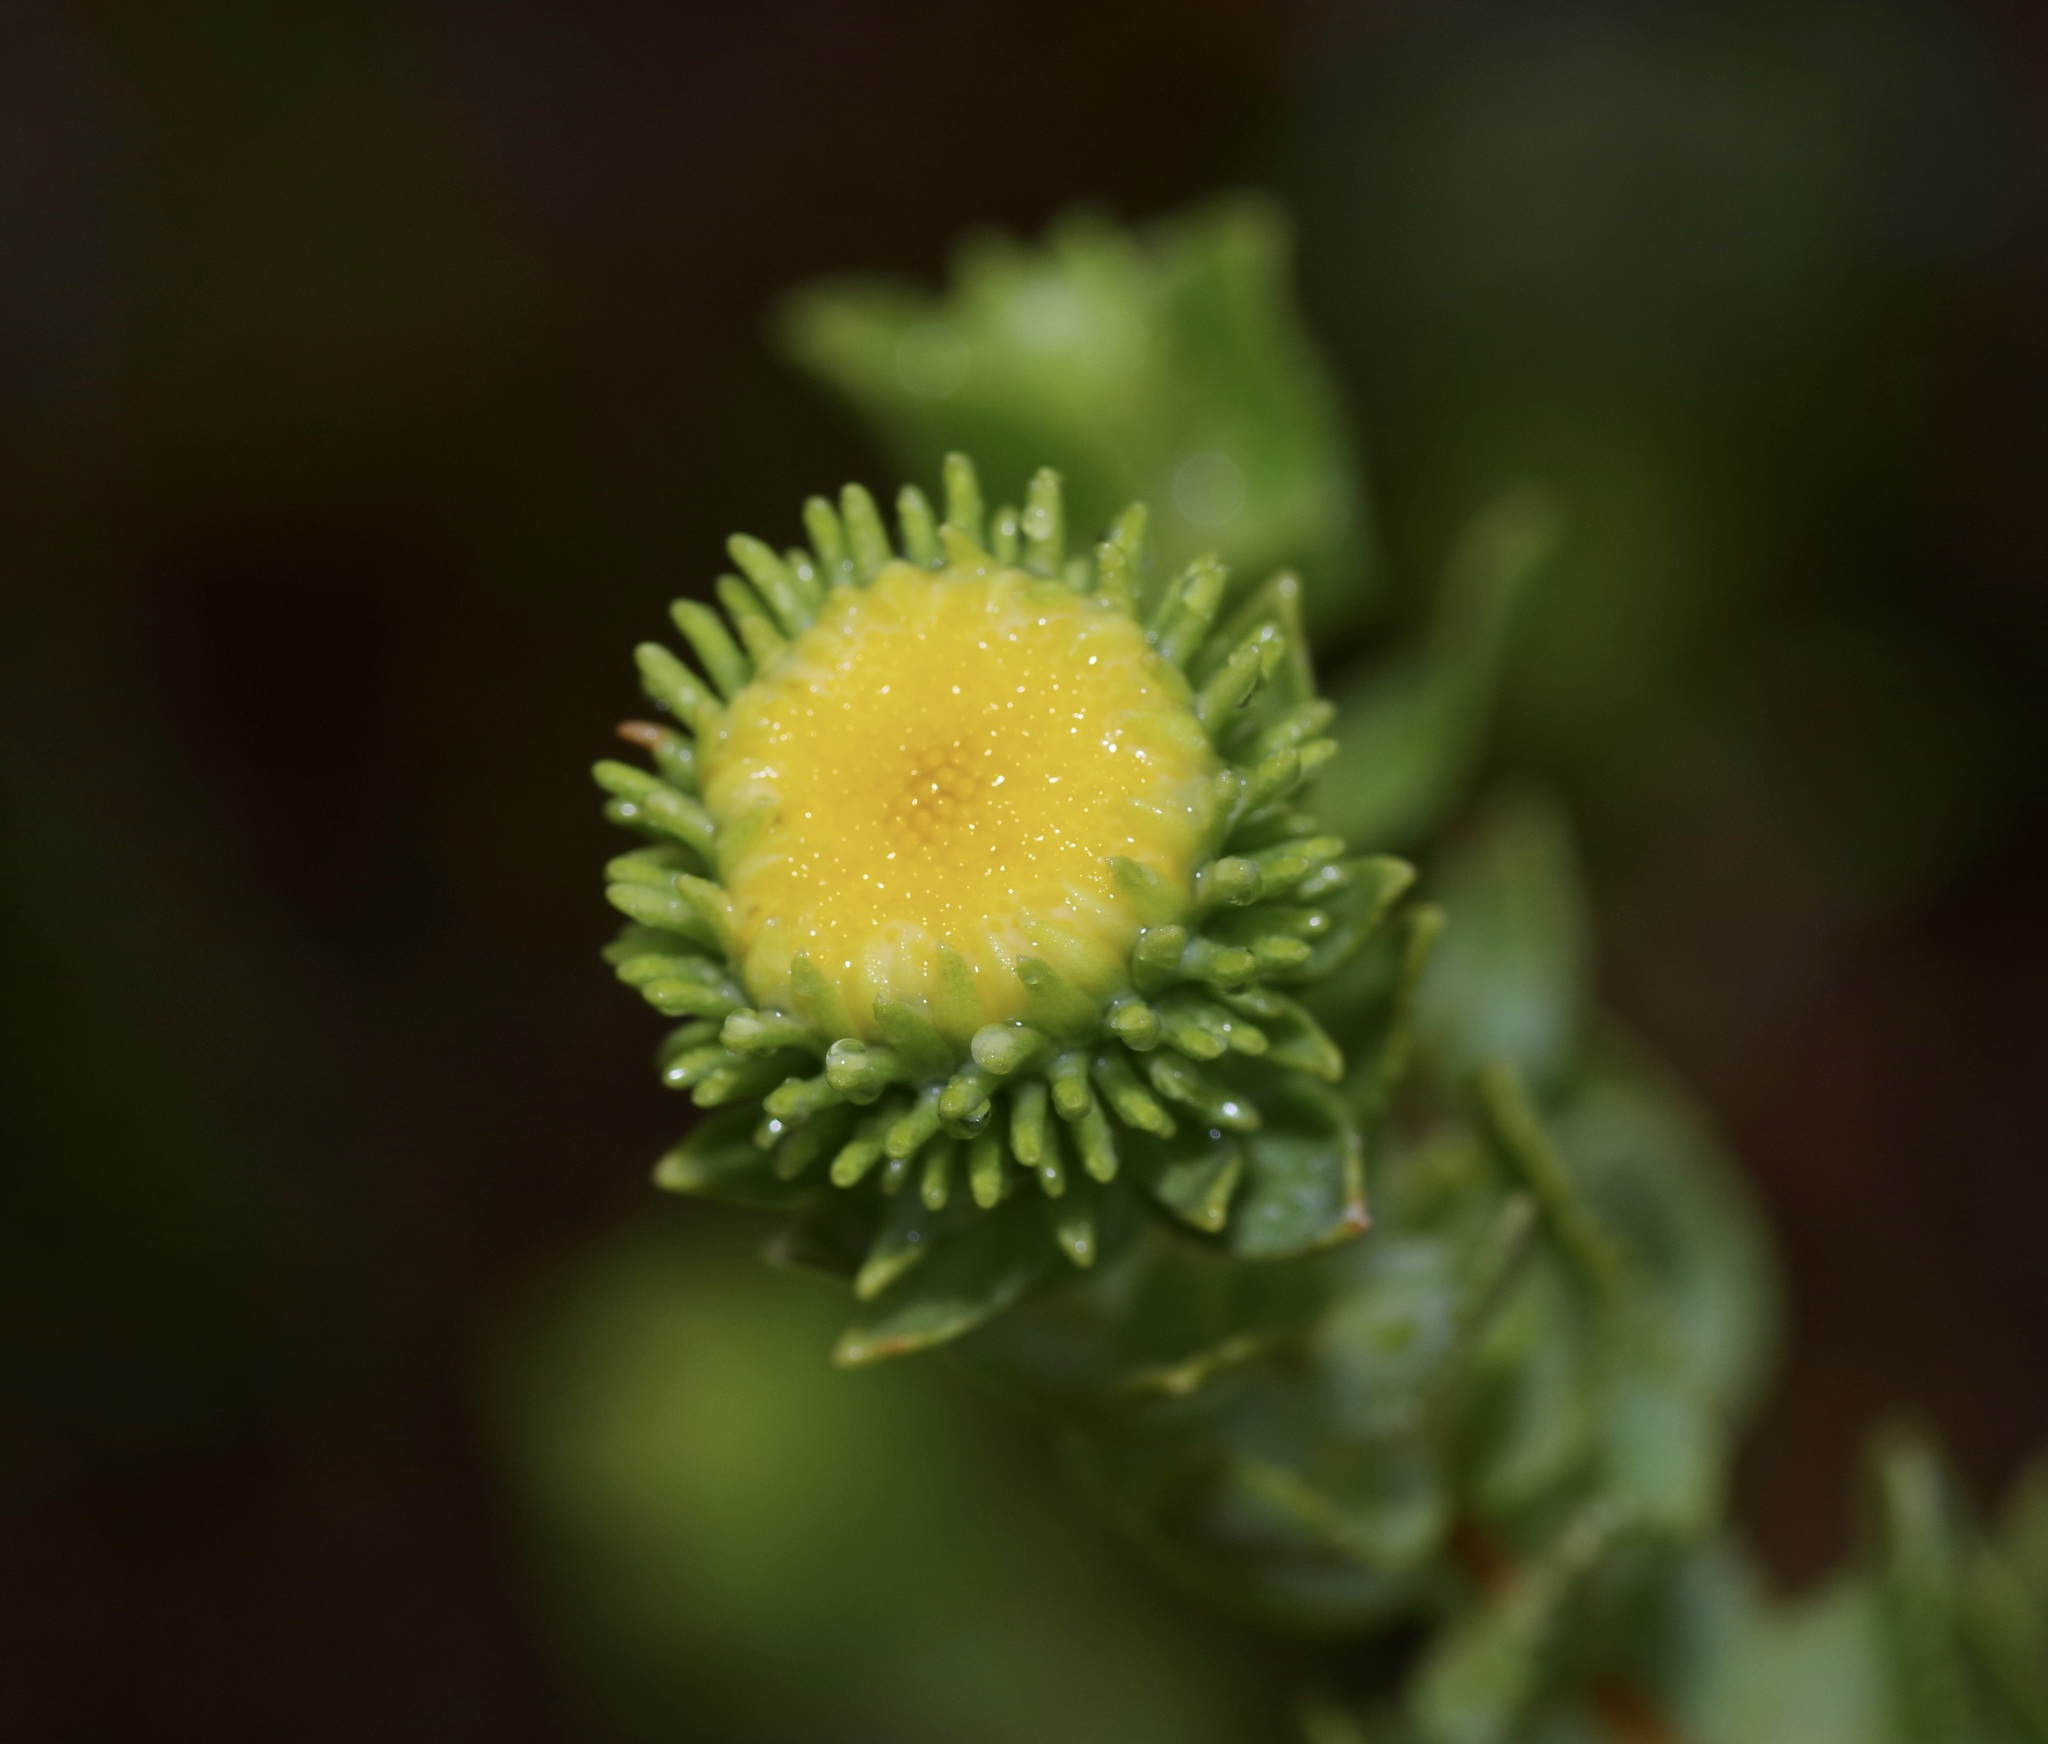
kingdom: Plantae
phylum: Tracheophyta
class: Magnoliopsida
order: Asterales
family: Asteraceae
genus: Grindelia
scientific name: Grindelia nuda
